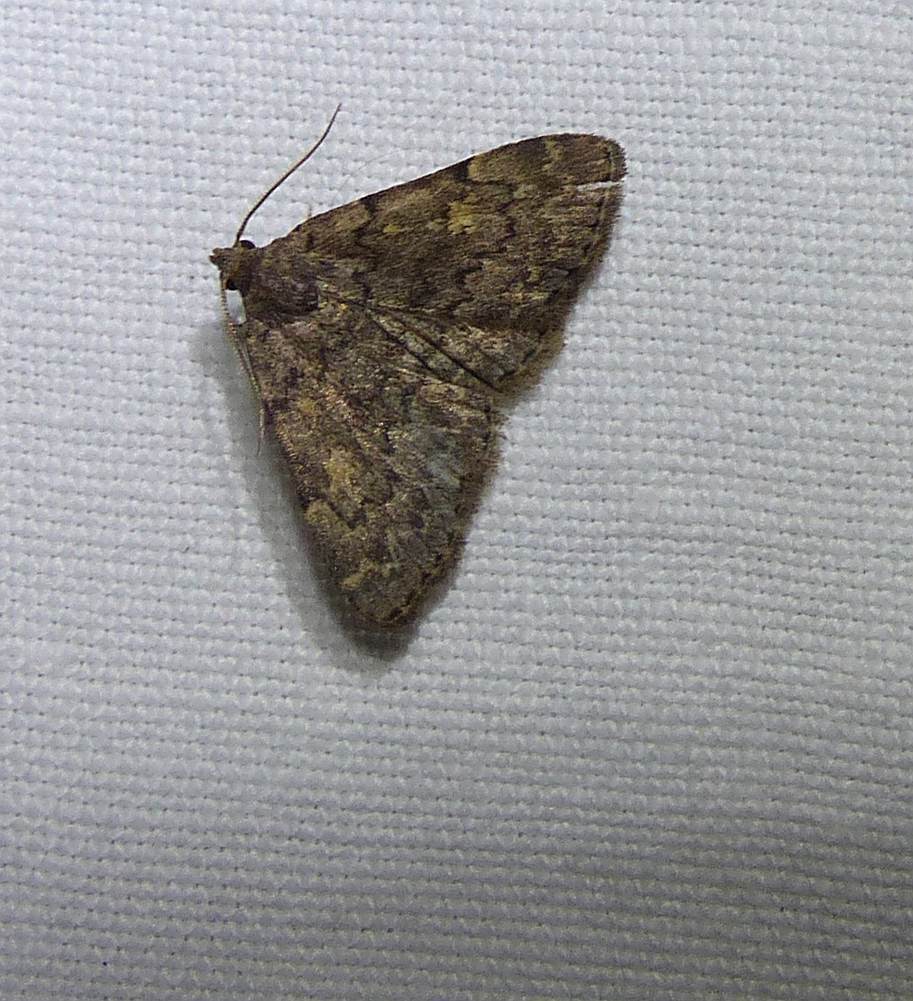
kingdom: Animalia
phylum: Arthropoda
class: Insecta
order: Lepidoptera
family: Erebidae
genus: Idia
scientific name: Idia aemula
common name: Common idia moth
